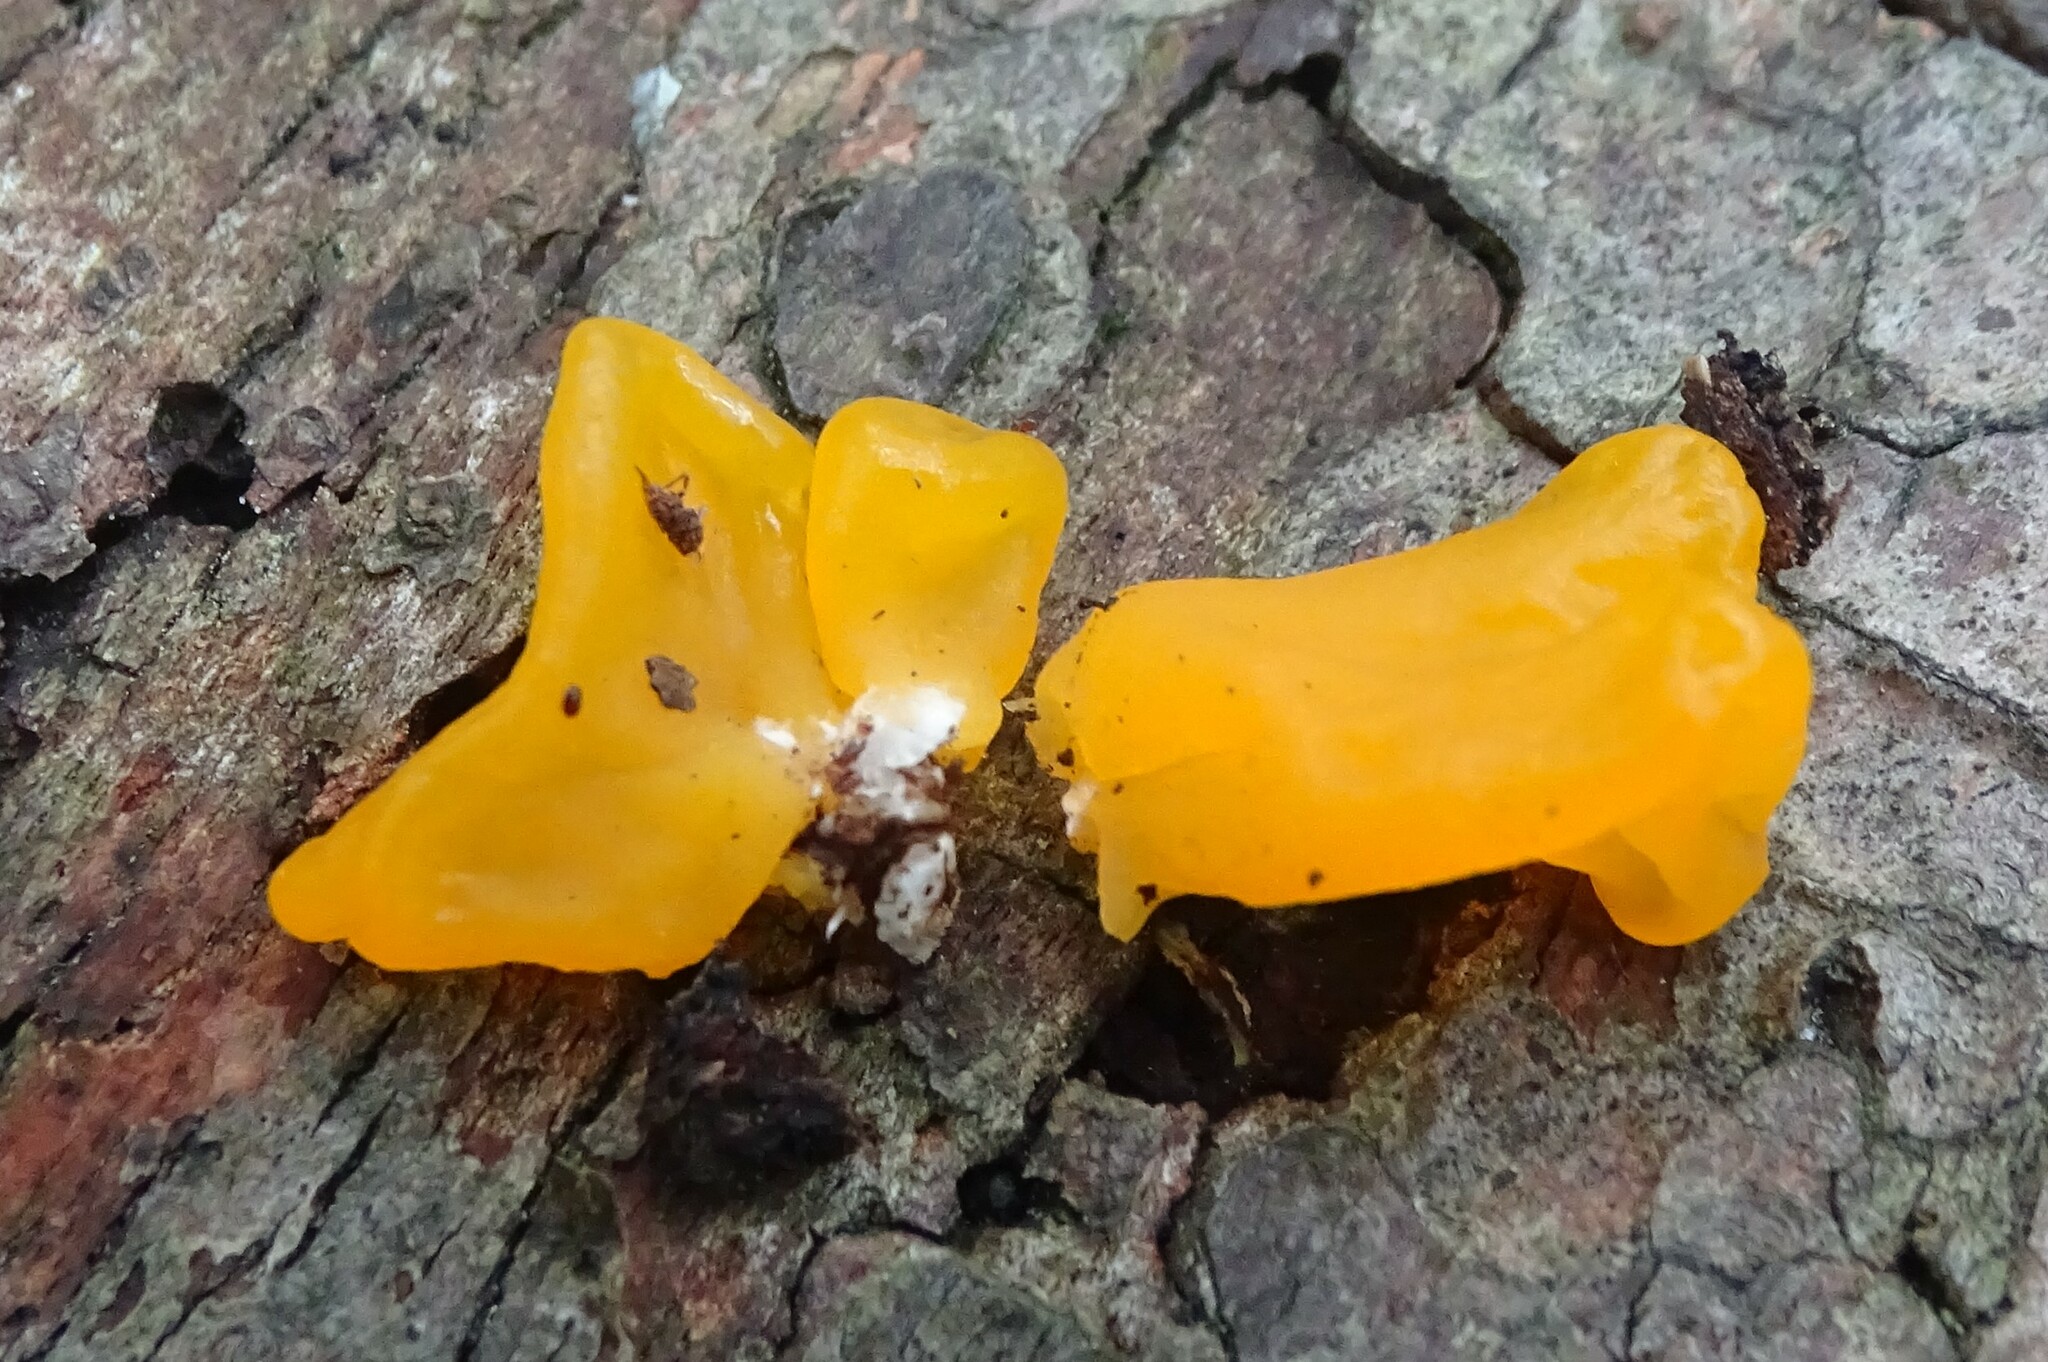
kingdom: Fungi
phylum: Basidiomycota
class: Dacrymycetes
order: Dacrymycetales
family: Dacrymycetaceae
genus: Dacrymyces
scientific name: Dacrymyces chrysospermus
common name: Orange jelly spot
